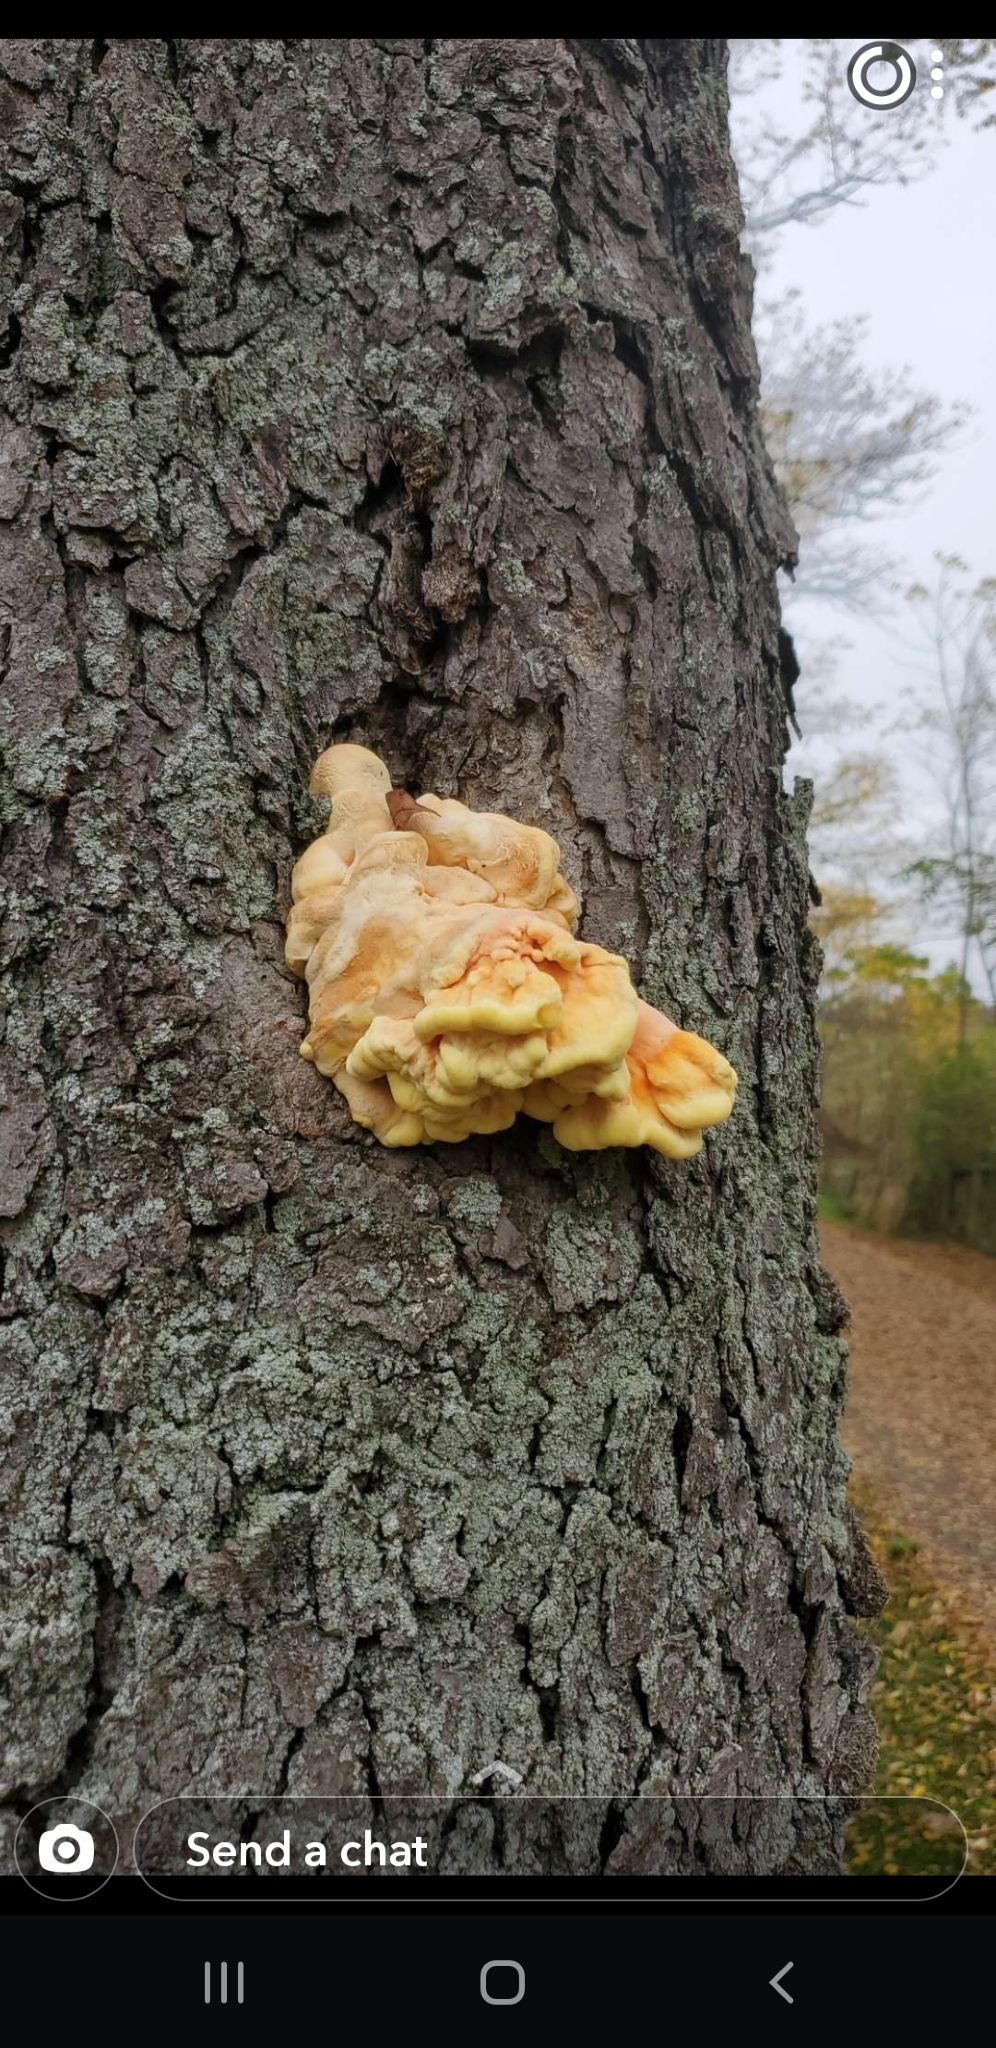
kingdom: Fungi
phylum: Basidiomycota
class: Agaricomycetes
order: Polyporales
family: Laetiporaceae
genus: Laetiporus
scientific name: Laetiporus sulphureus
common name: Chicken of the woods
